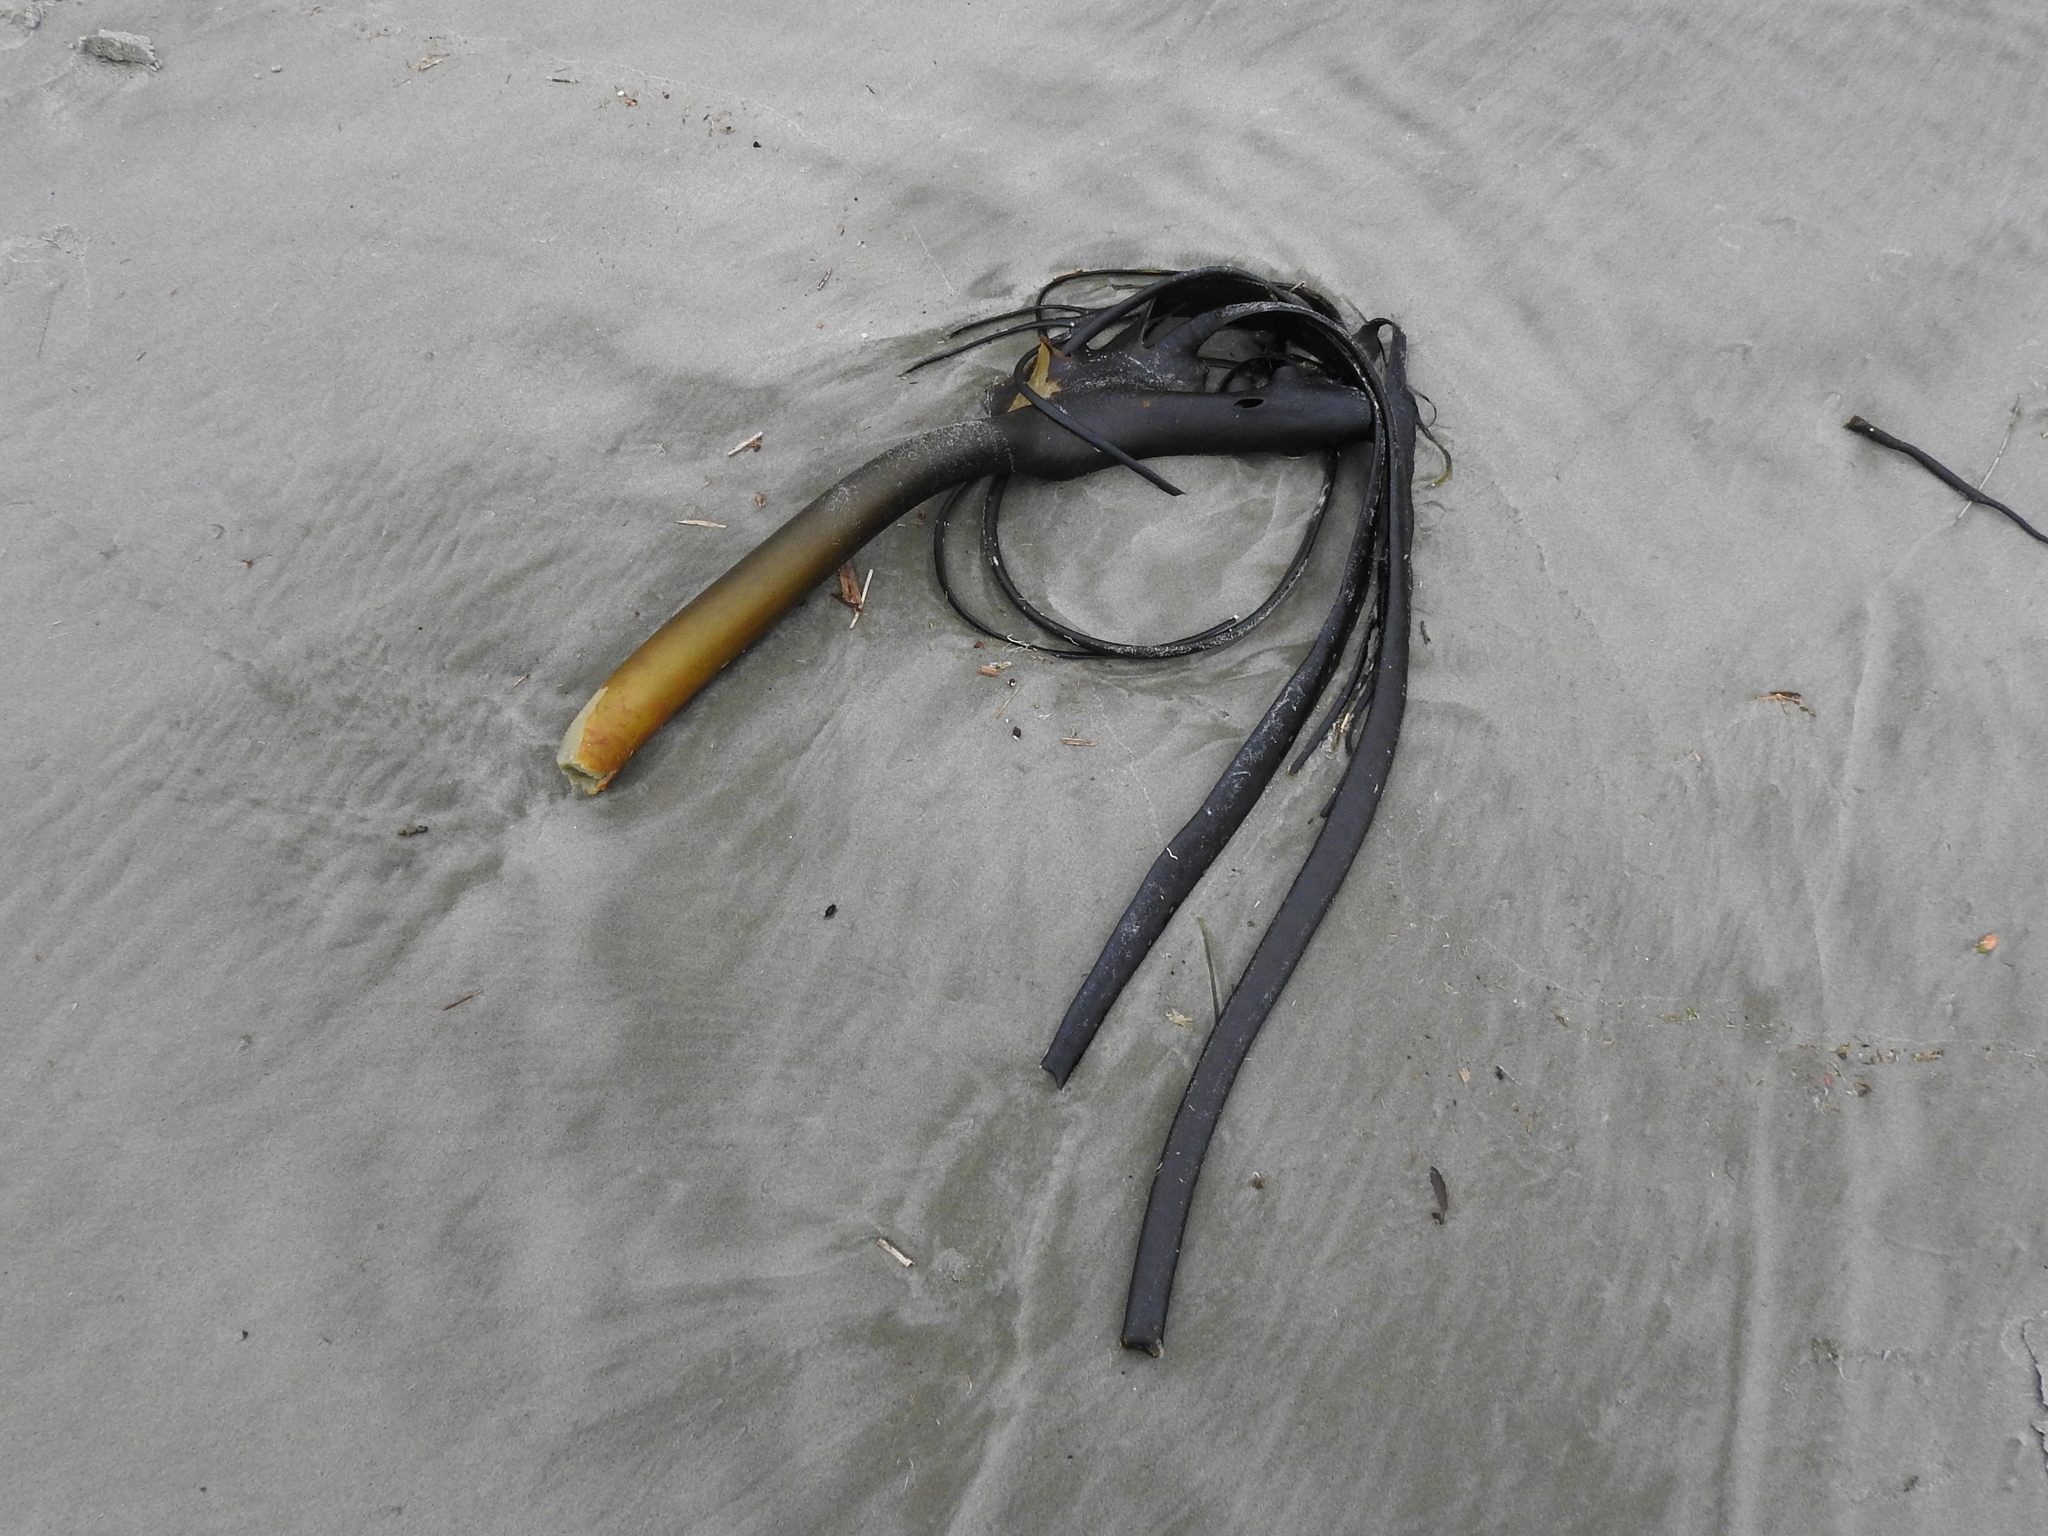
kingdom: Chromista
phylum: Ochrophyta
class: Phaeophyceae
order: Fucales
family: Durvillaeaceae
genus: Durvillaea
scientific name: Durvillaea antarctica
